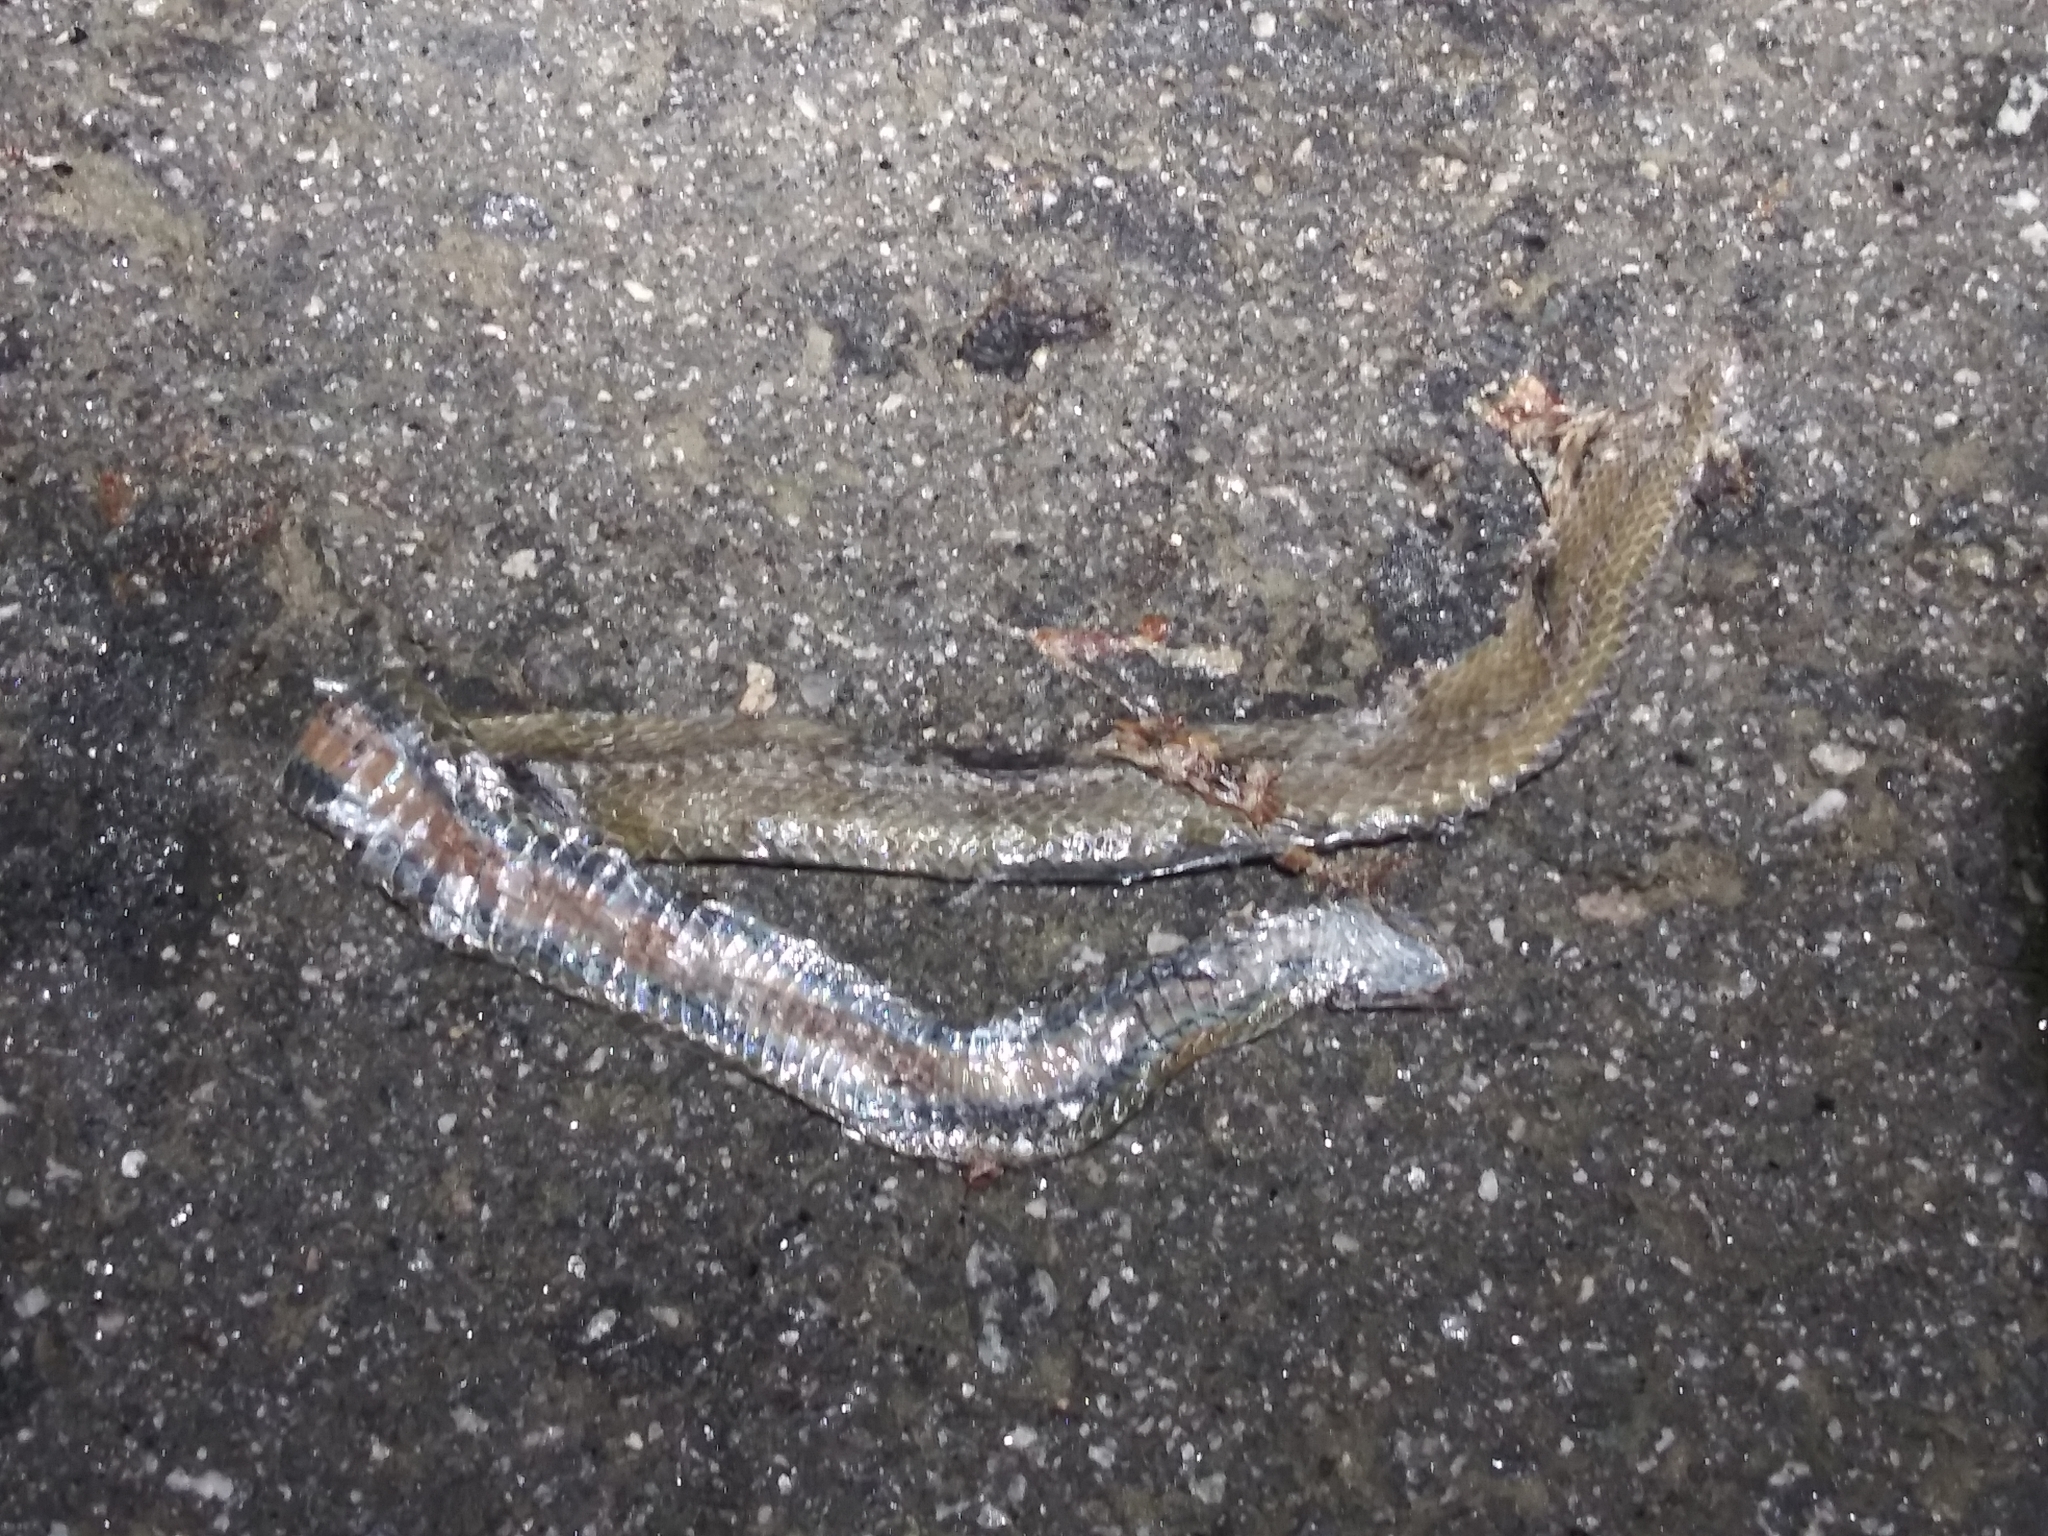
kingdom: Animalia
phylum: Chordata
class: Squamata
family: Colubridae
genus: Storeria
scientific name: Storeria occipitomaculata
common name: Redbelly snake
